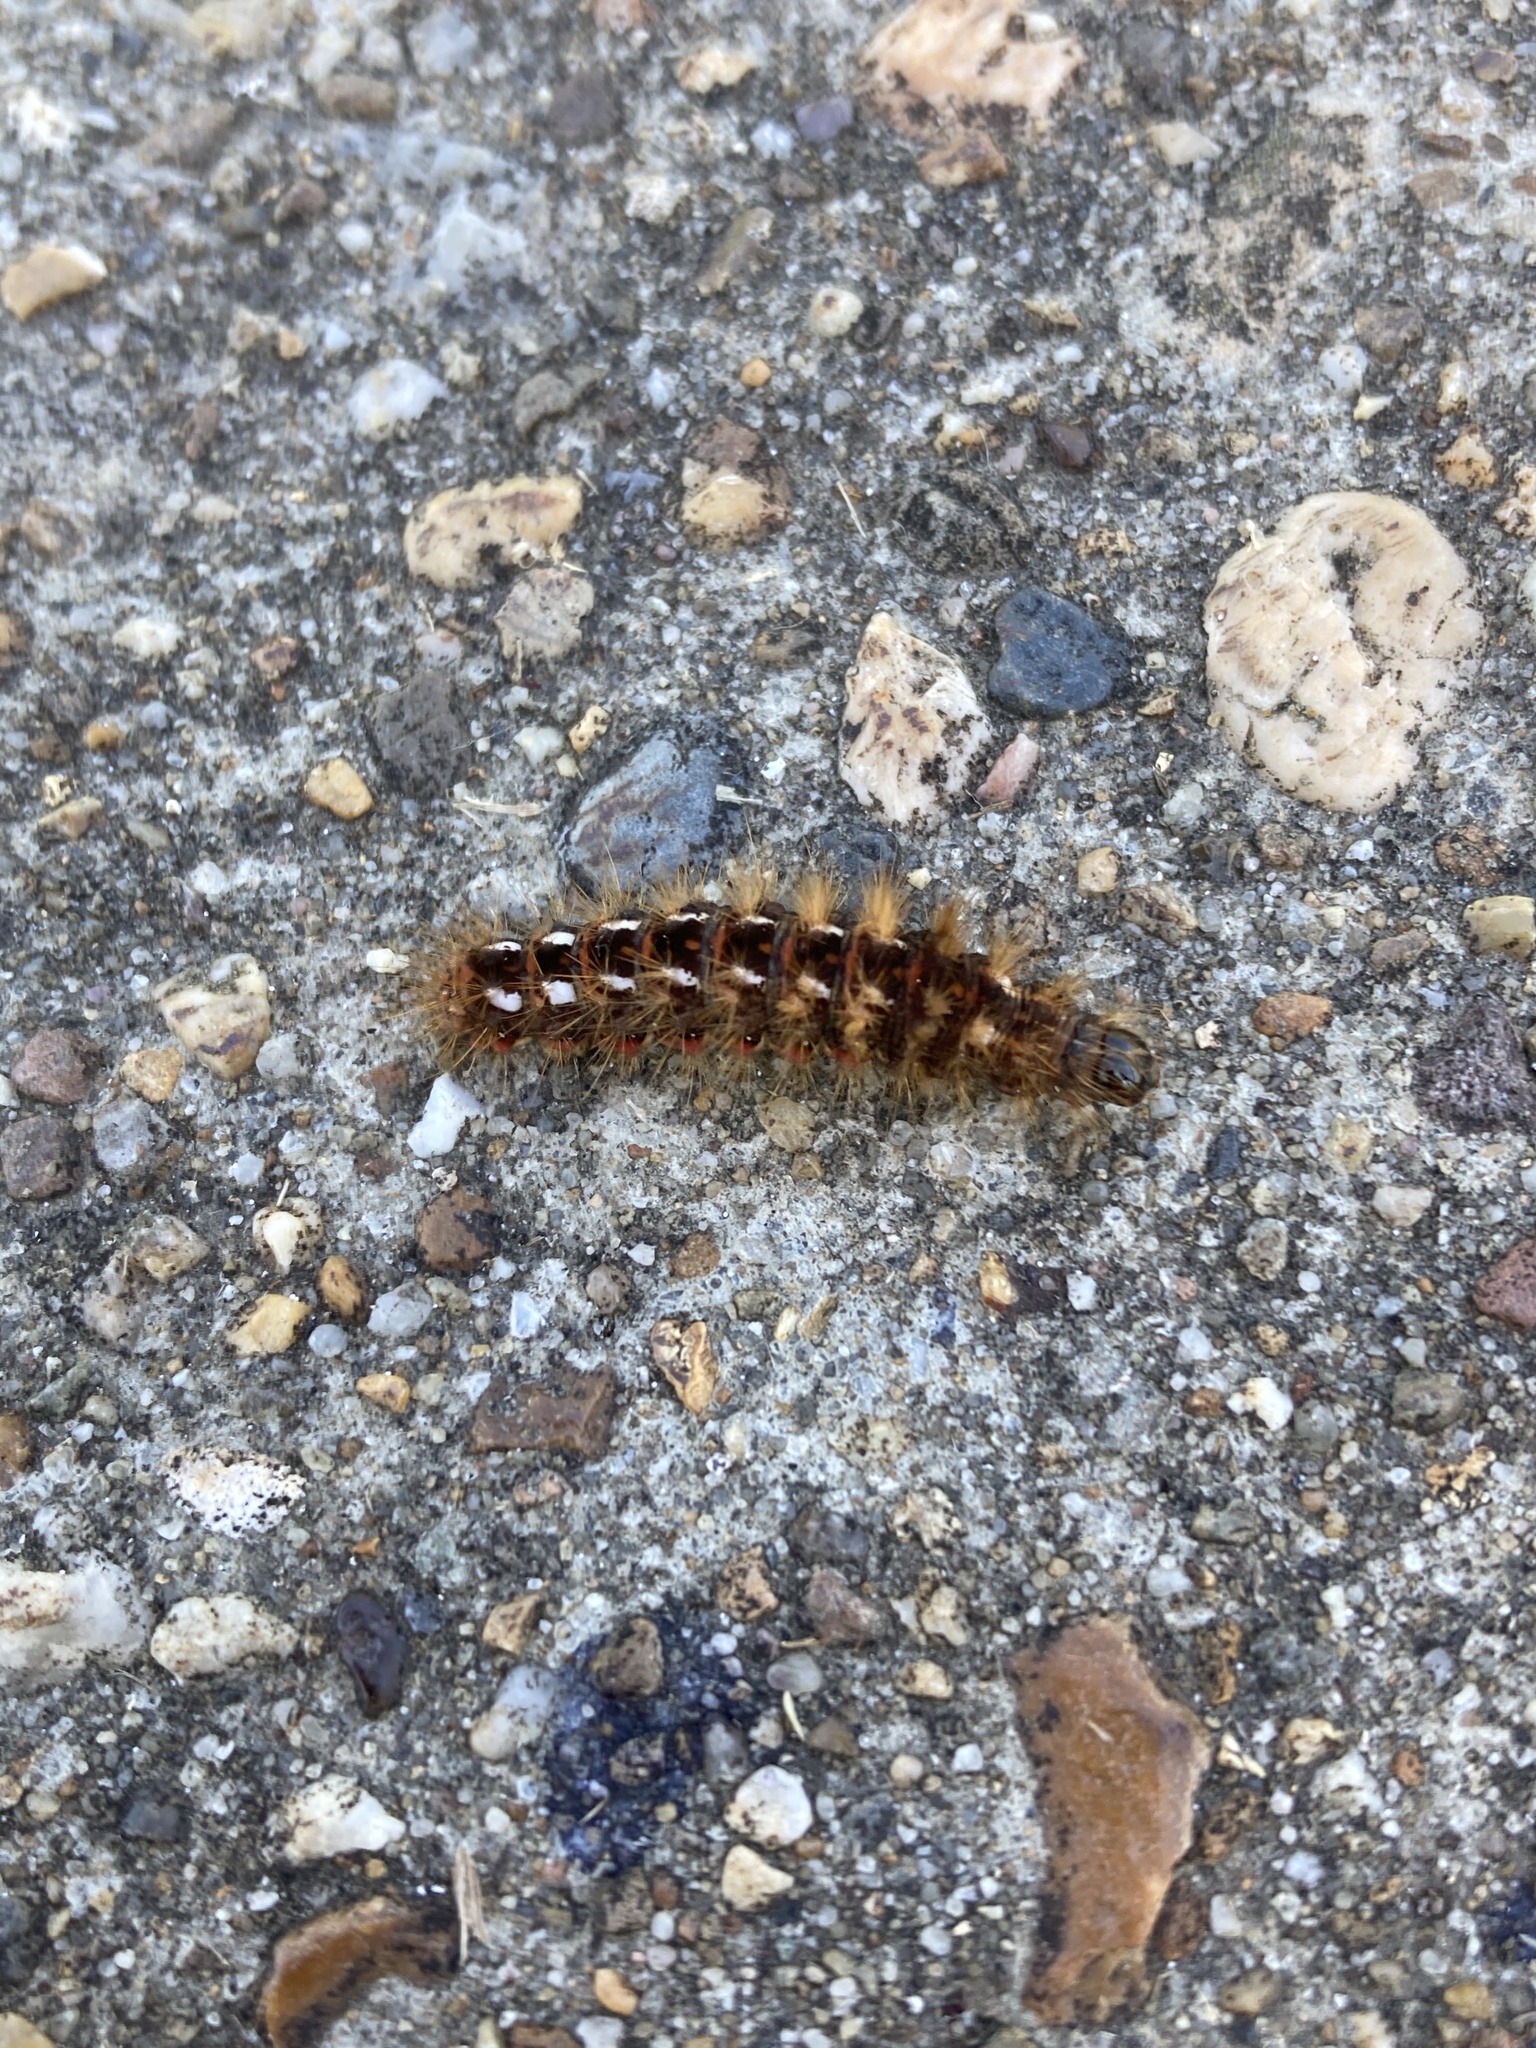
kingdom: Animalia
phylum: Arthropoda
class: Insecta
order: Lepidoptera
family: Noctuidae
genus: Acronicta
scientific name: Acronicta rumicis
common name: Knot grass
